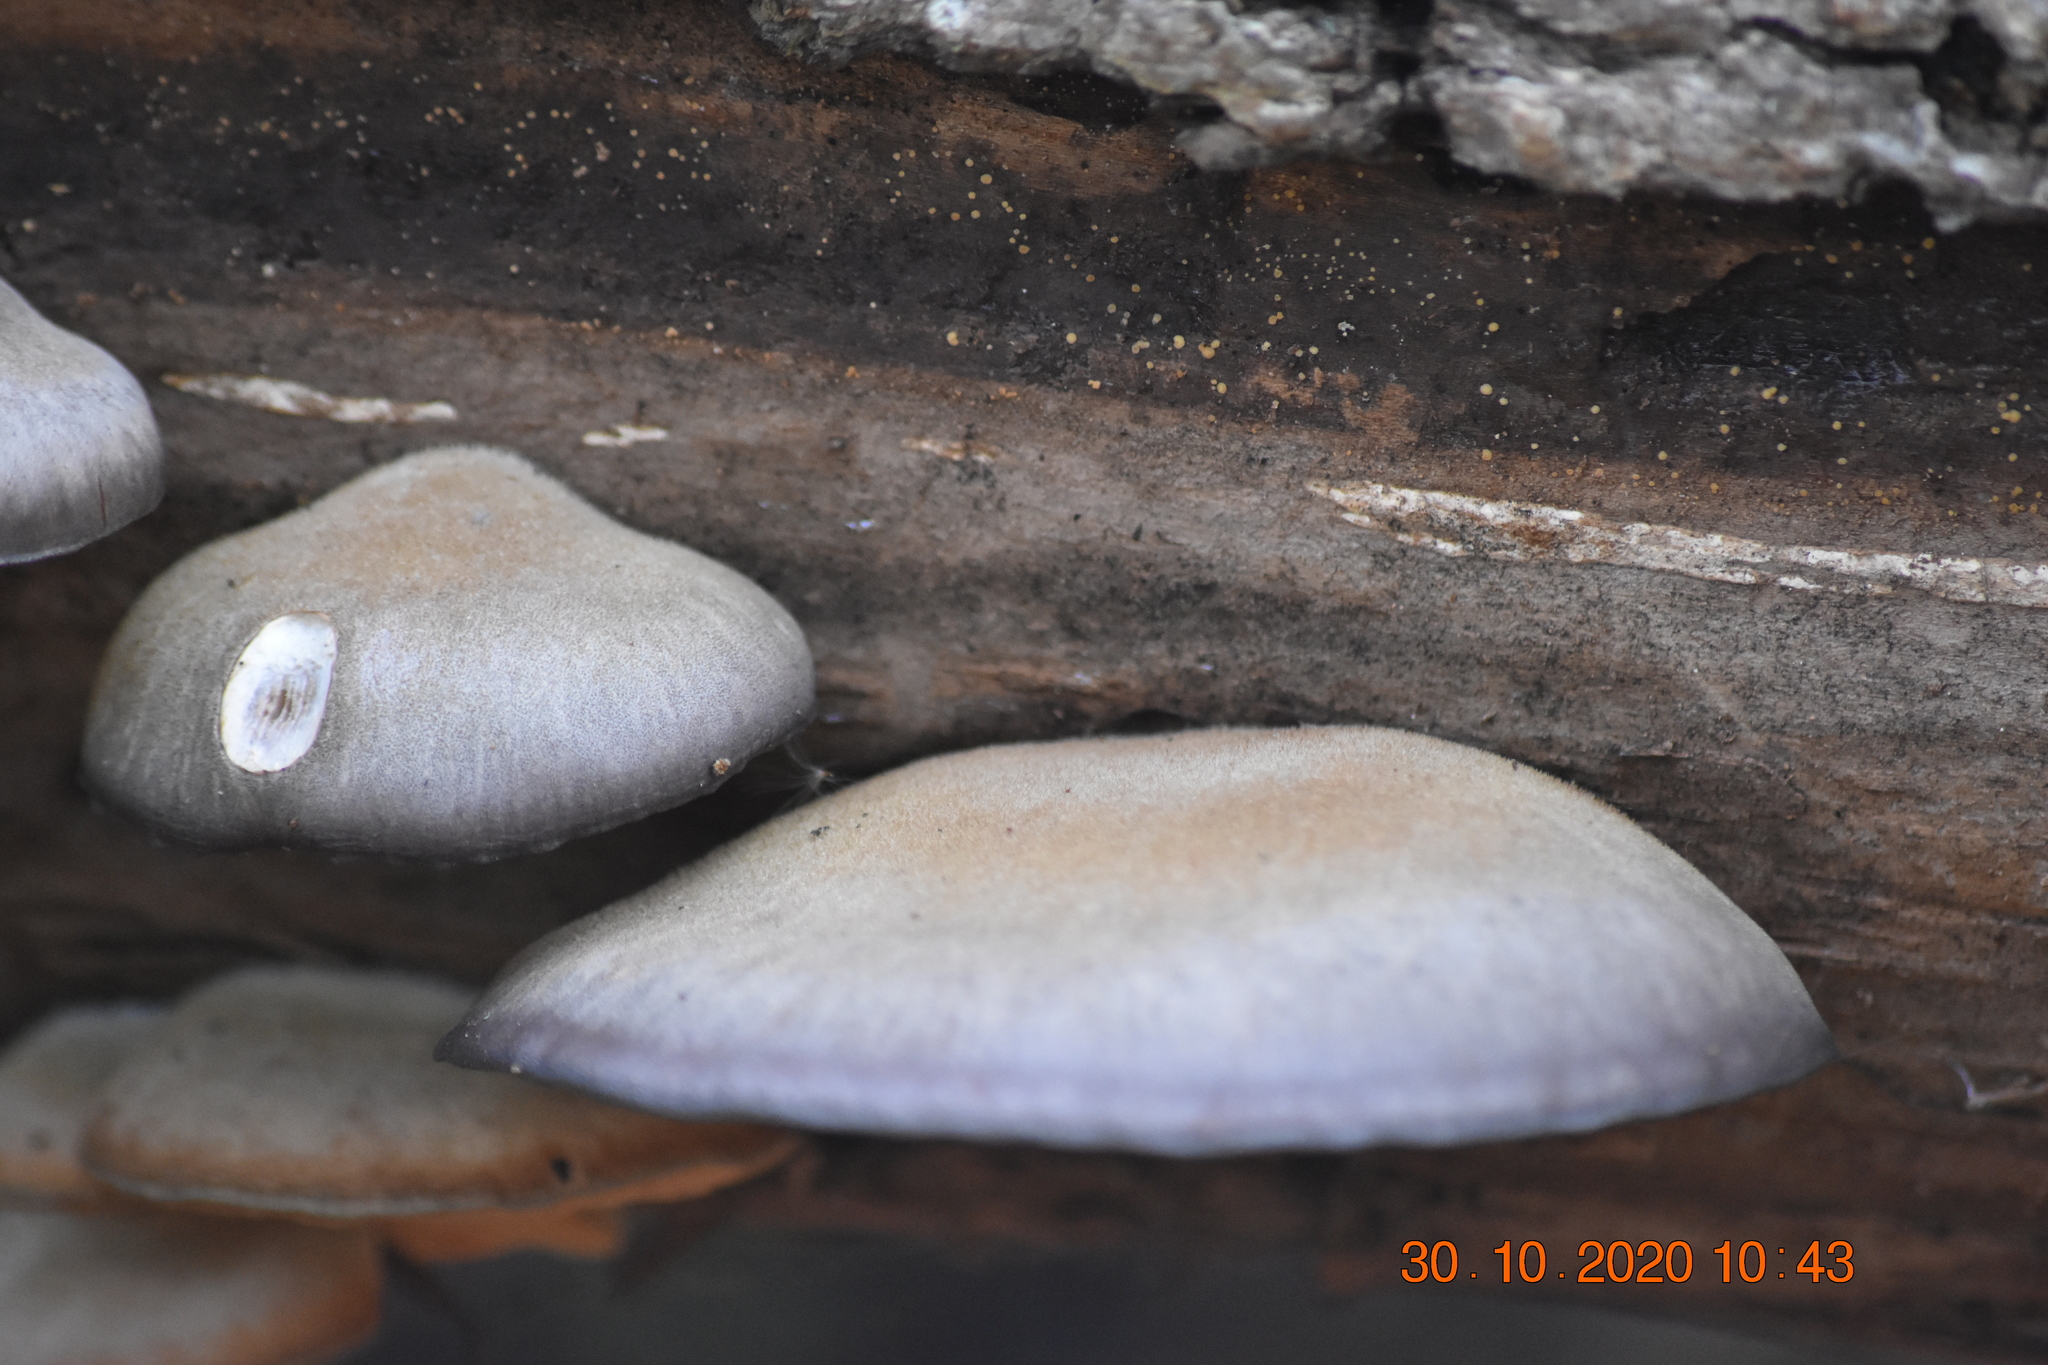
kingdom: Fungi
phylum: Basidiomycota
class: Agaricomycetes
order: Agaricales
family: Sarcomyxaceae
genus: Sarcomyxa
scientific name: Sarcomyxa serotina
